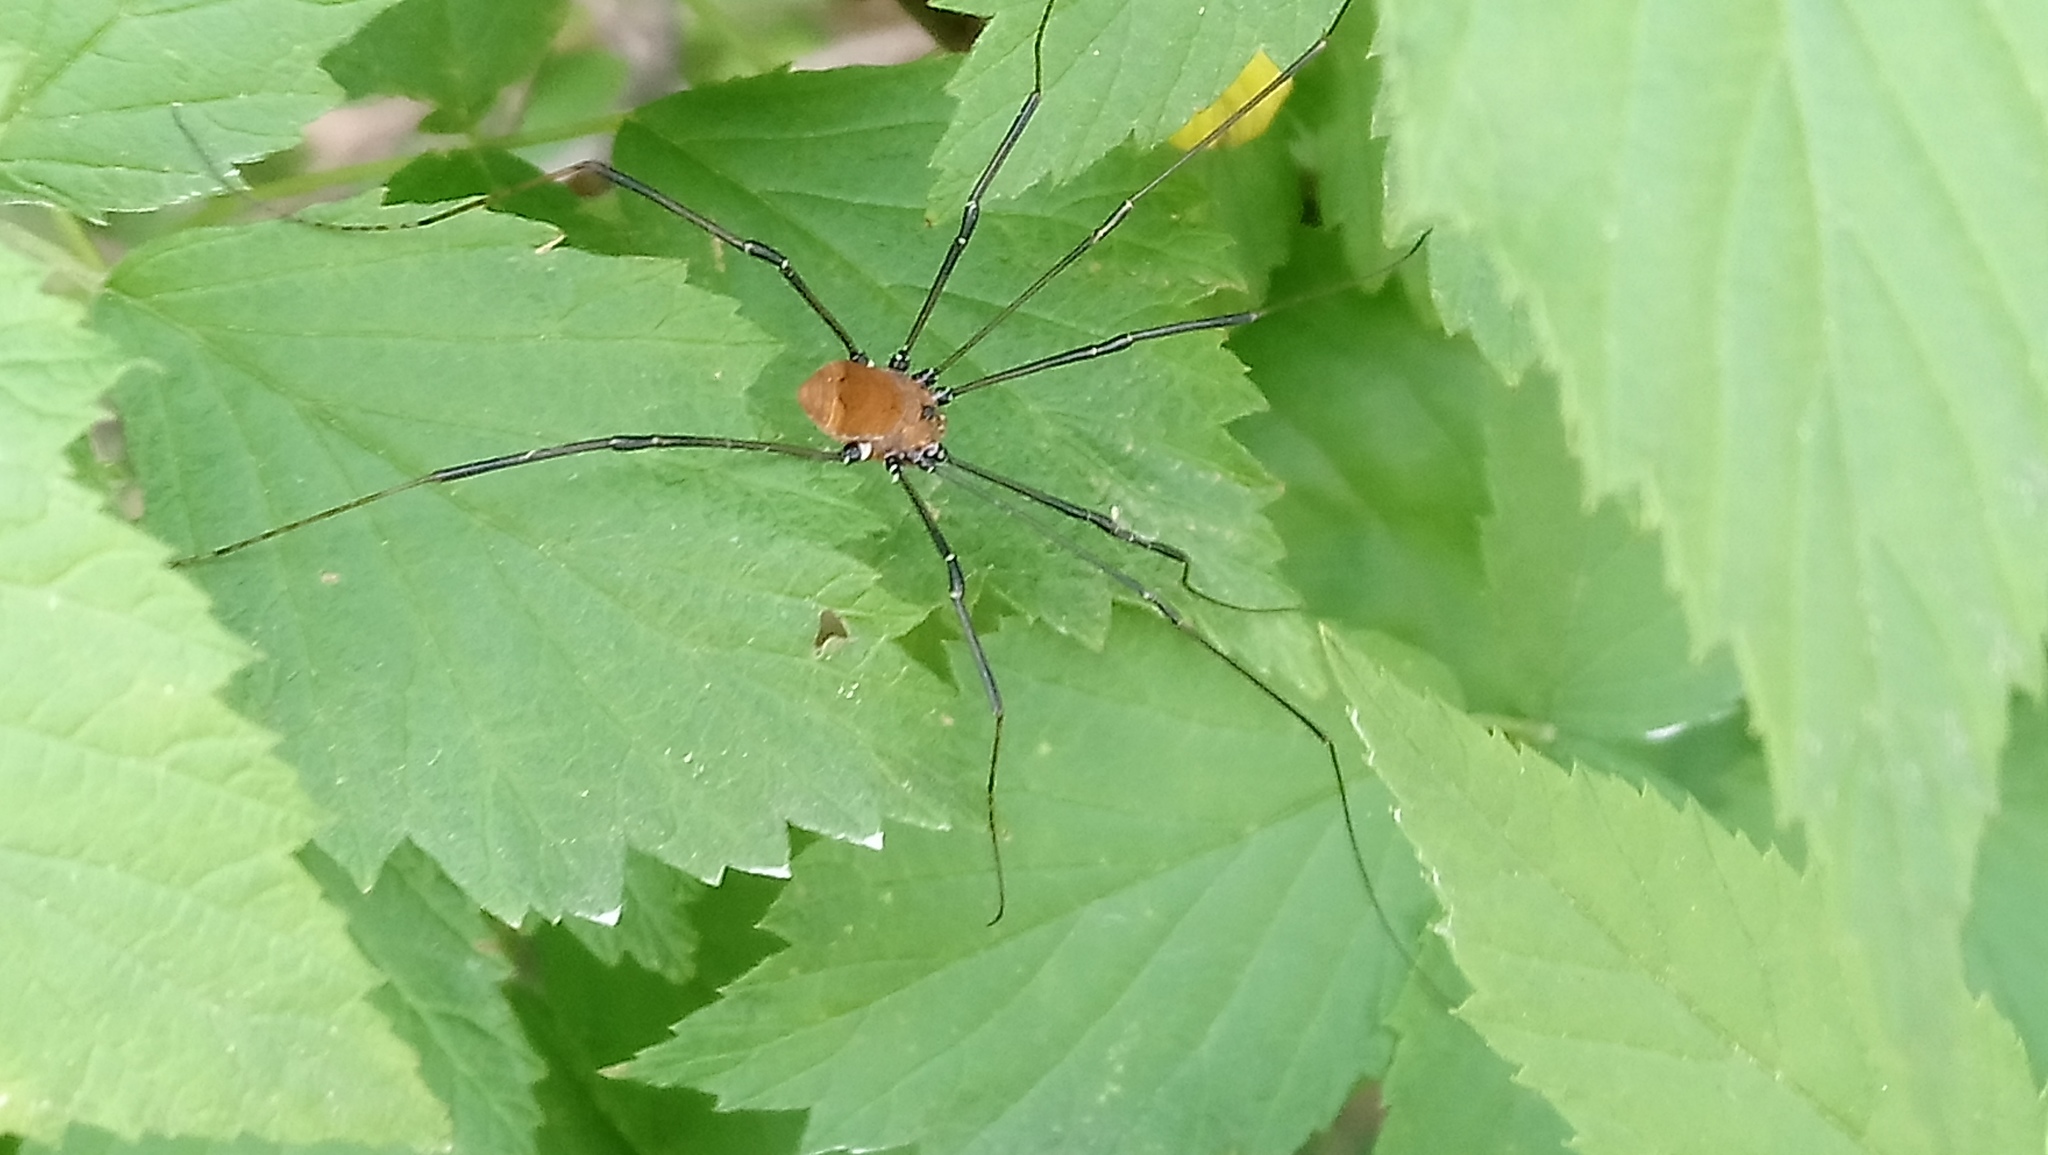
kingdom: Animalia
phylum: Arthropoda
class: Arachnida
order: Opiliones
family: Sclerosomatidae
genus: Leiobunum
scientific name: Leiobunum verrucosum
